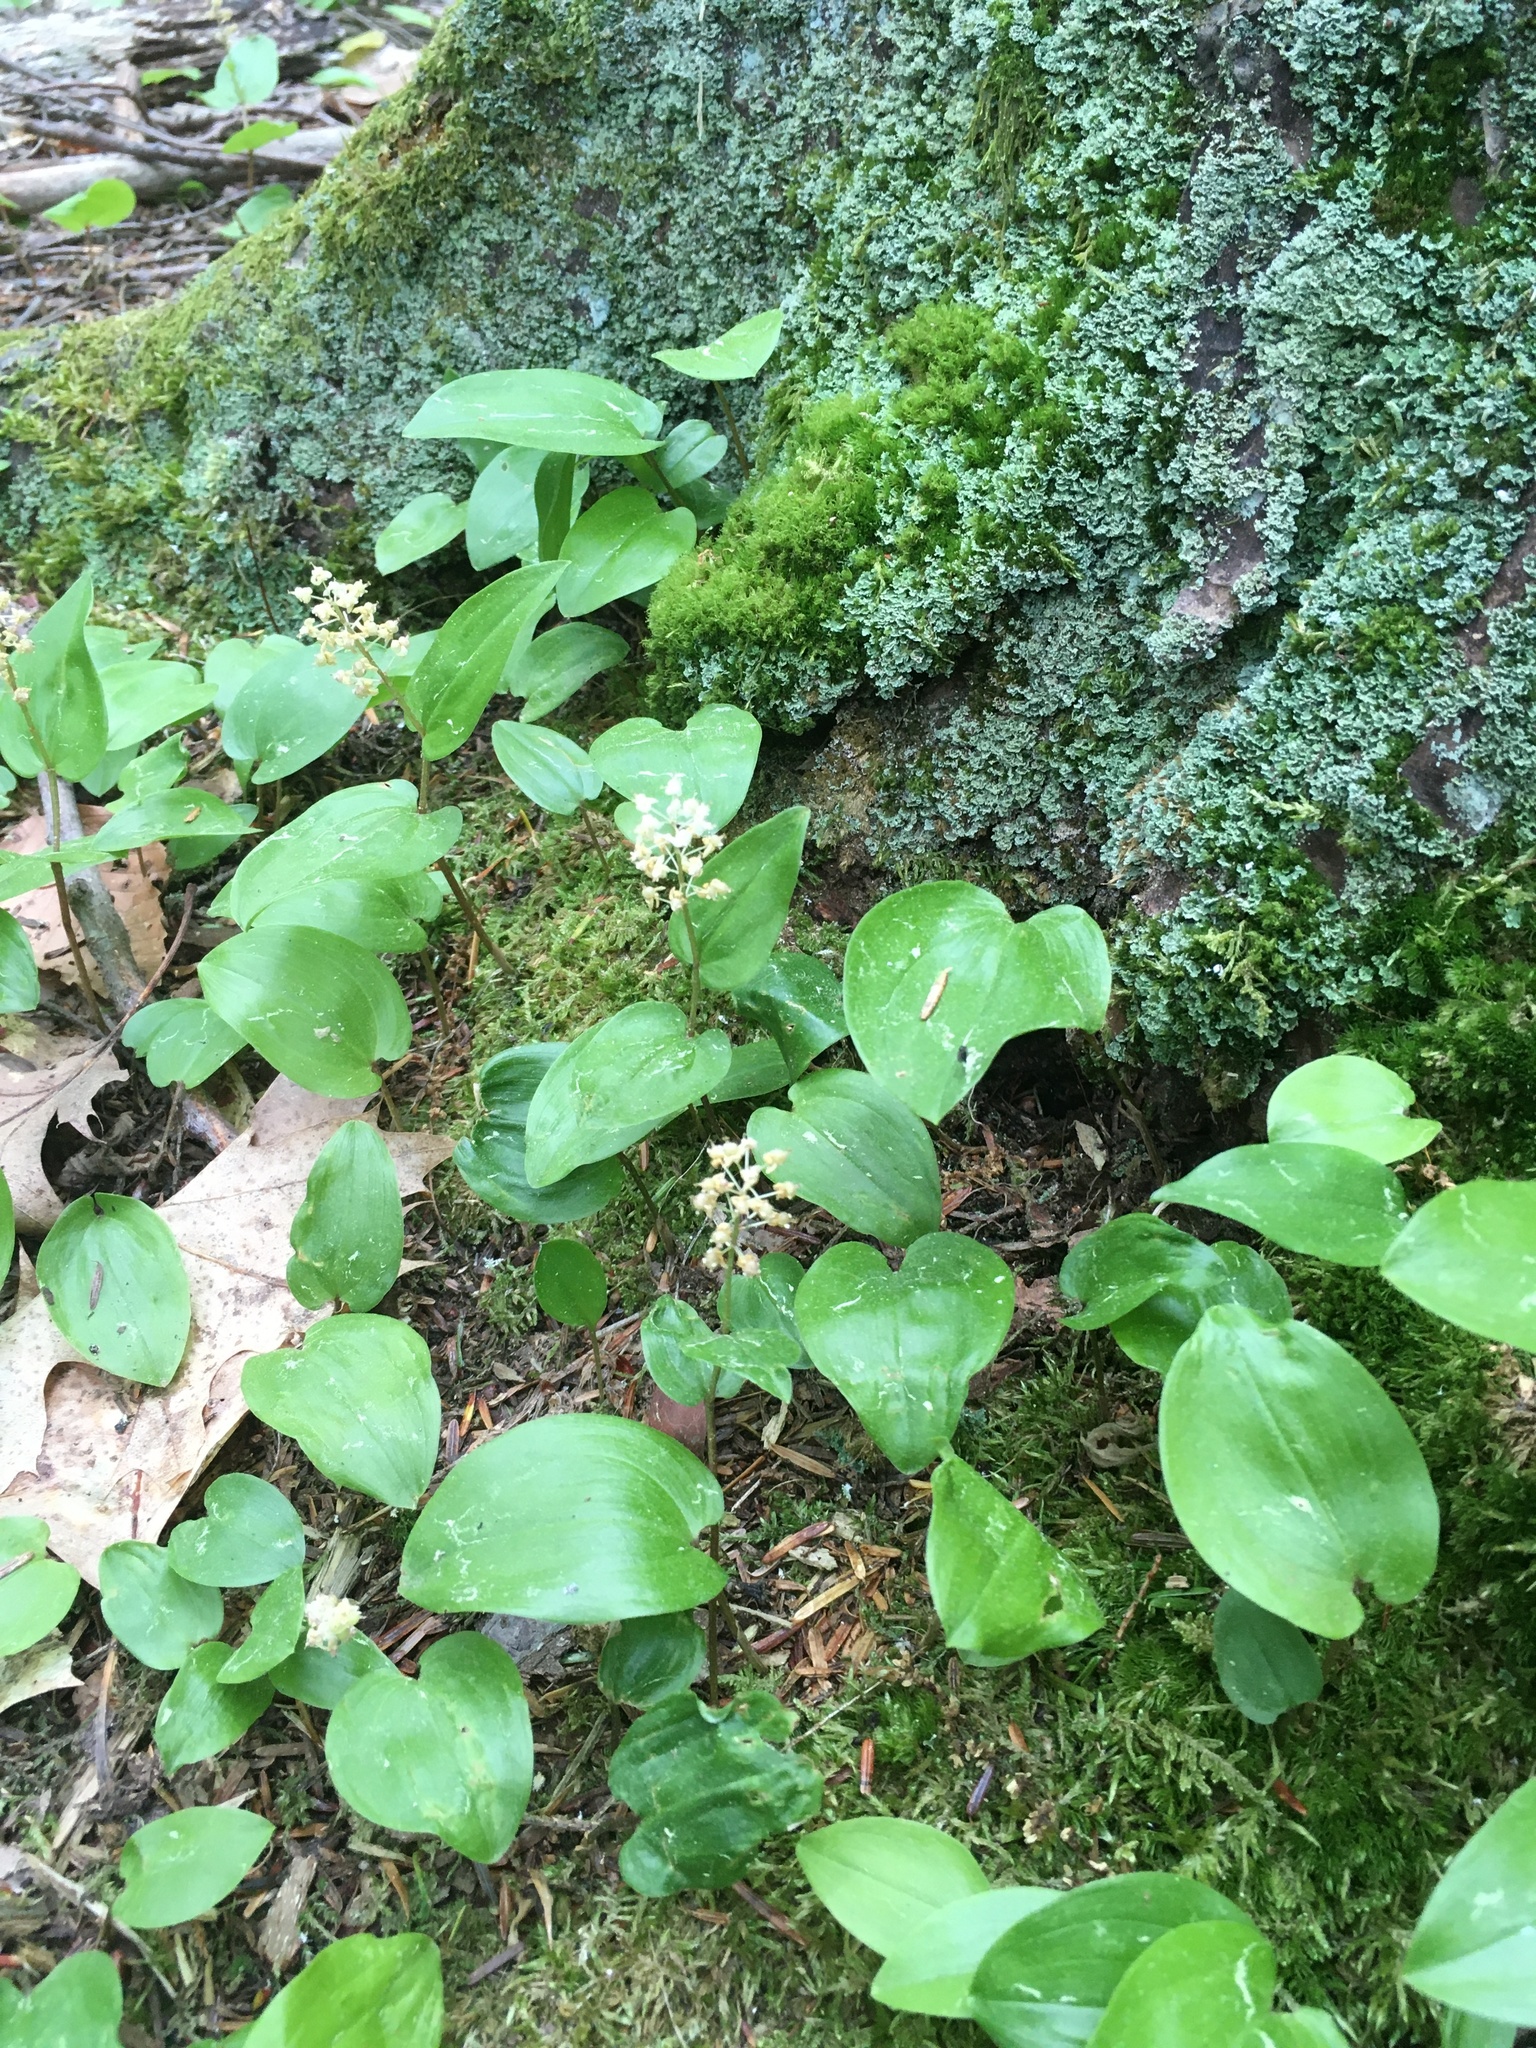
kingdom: Plantae
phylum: Tracheophyta
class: Liliopsida
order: Asparagales
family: Asparagaceae
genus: Maianthemum
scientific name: Maianthemum canadense
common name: False lily-of-the-valley
